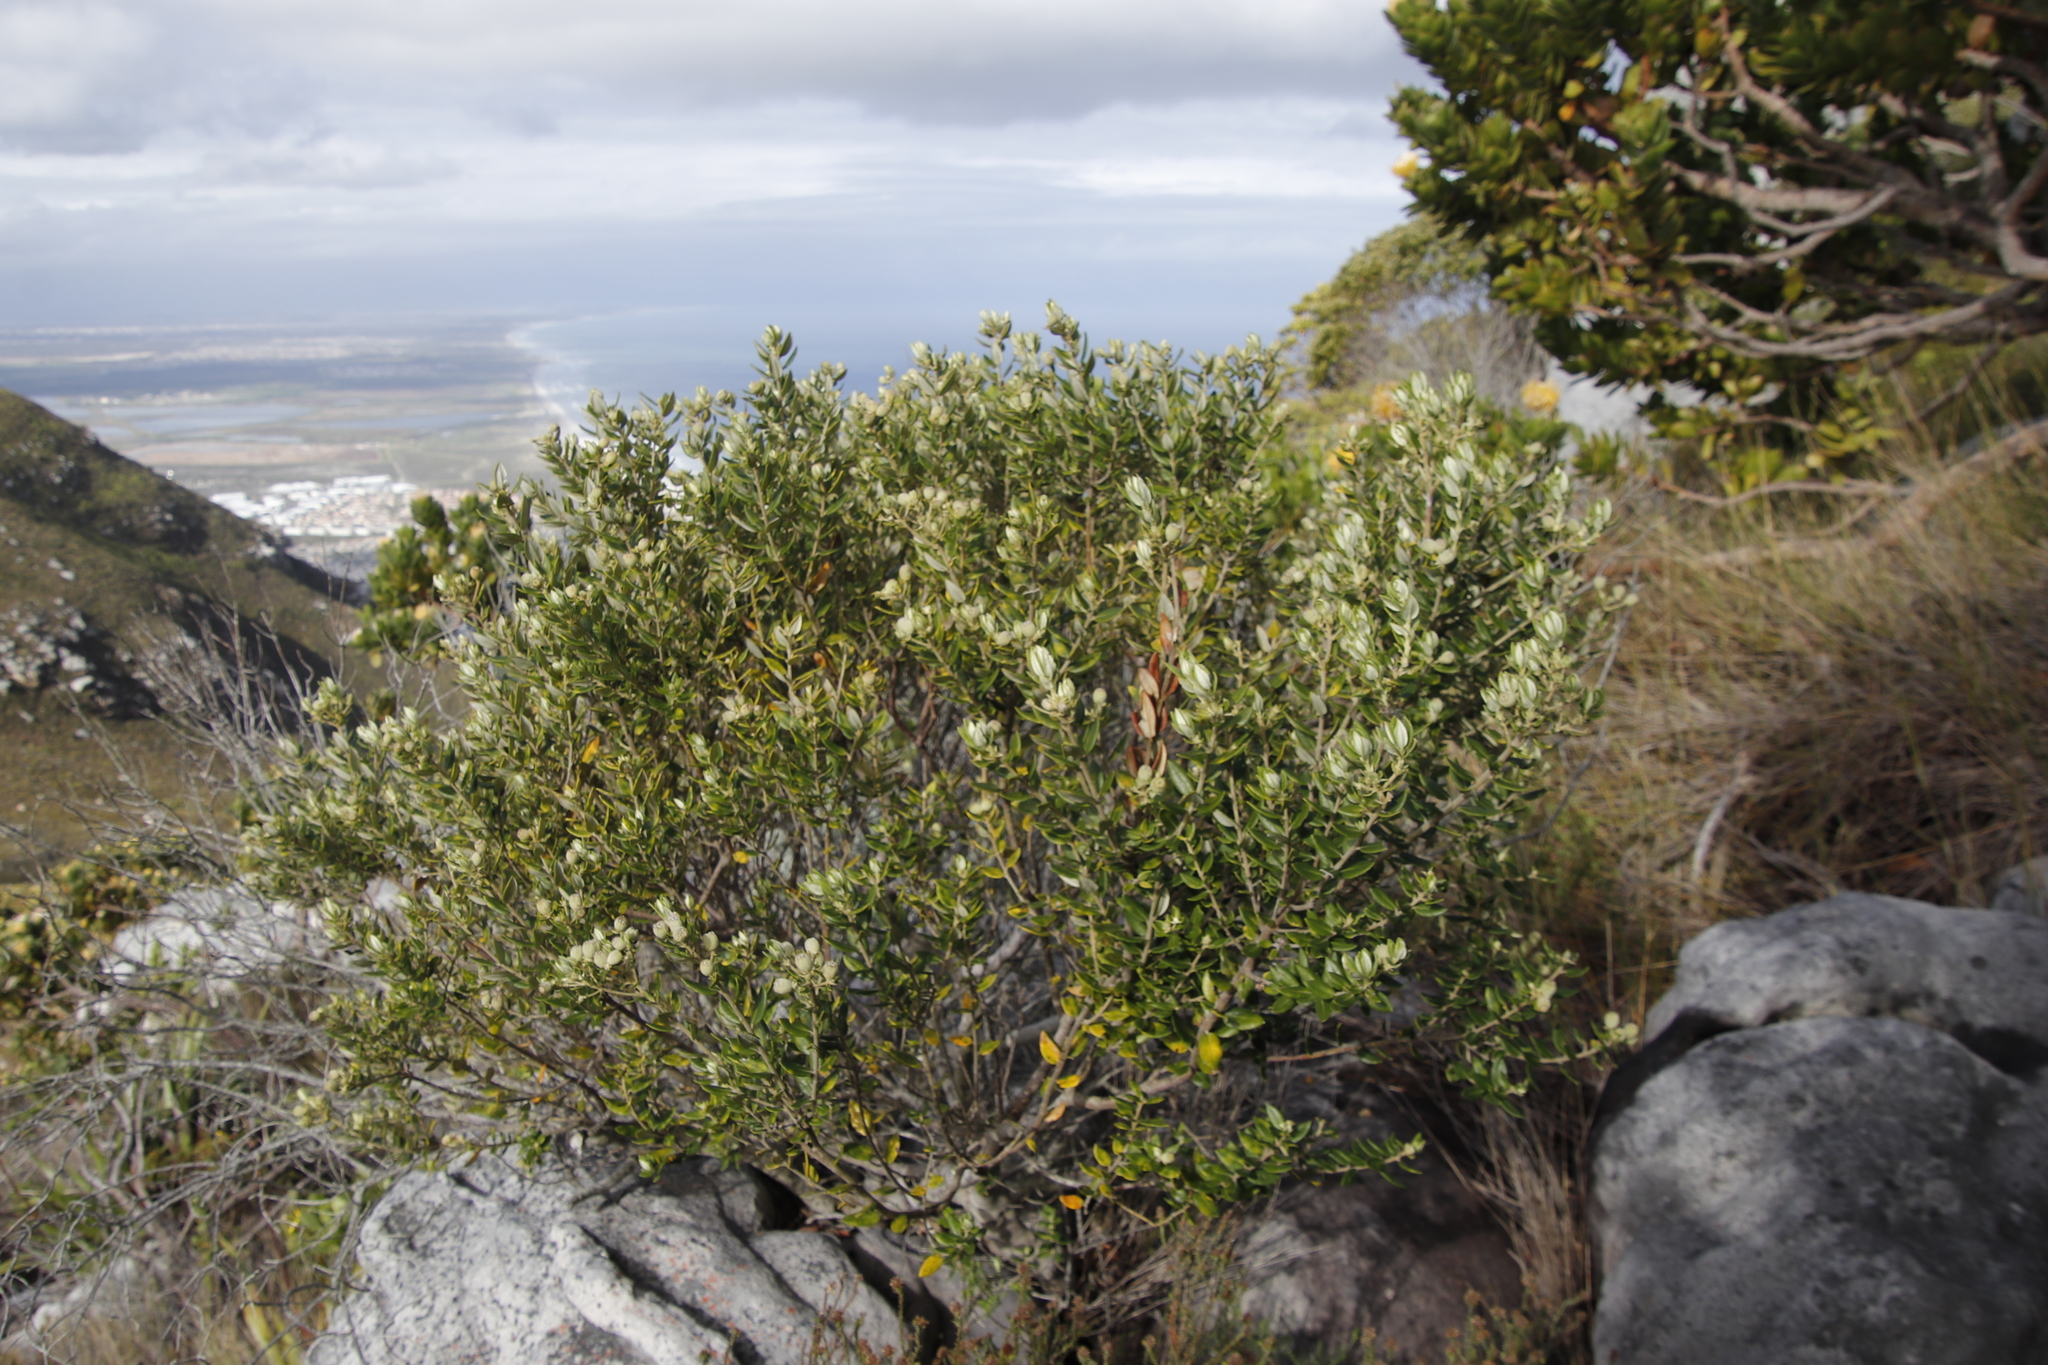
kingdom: Plantae
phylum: Tracheophyta
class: Magnoliopsida
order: Rosales
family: Rhamnaceae
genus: Phylica
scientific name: Phylica buxifolia
